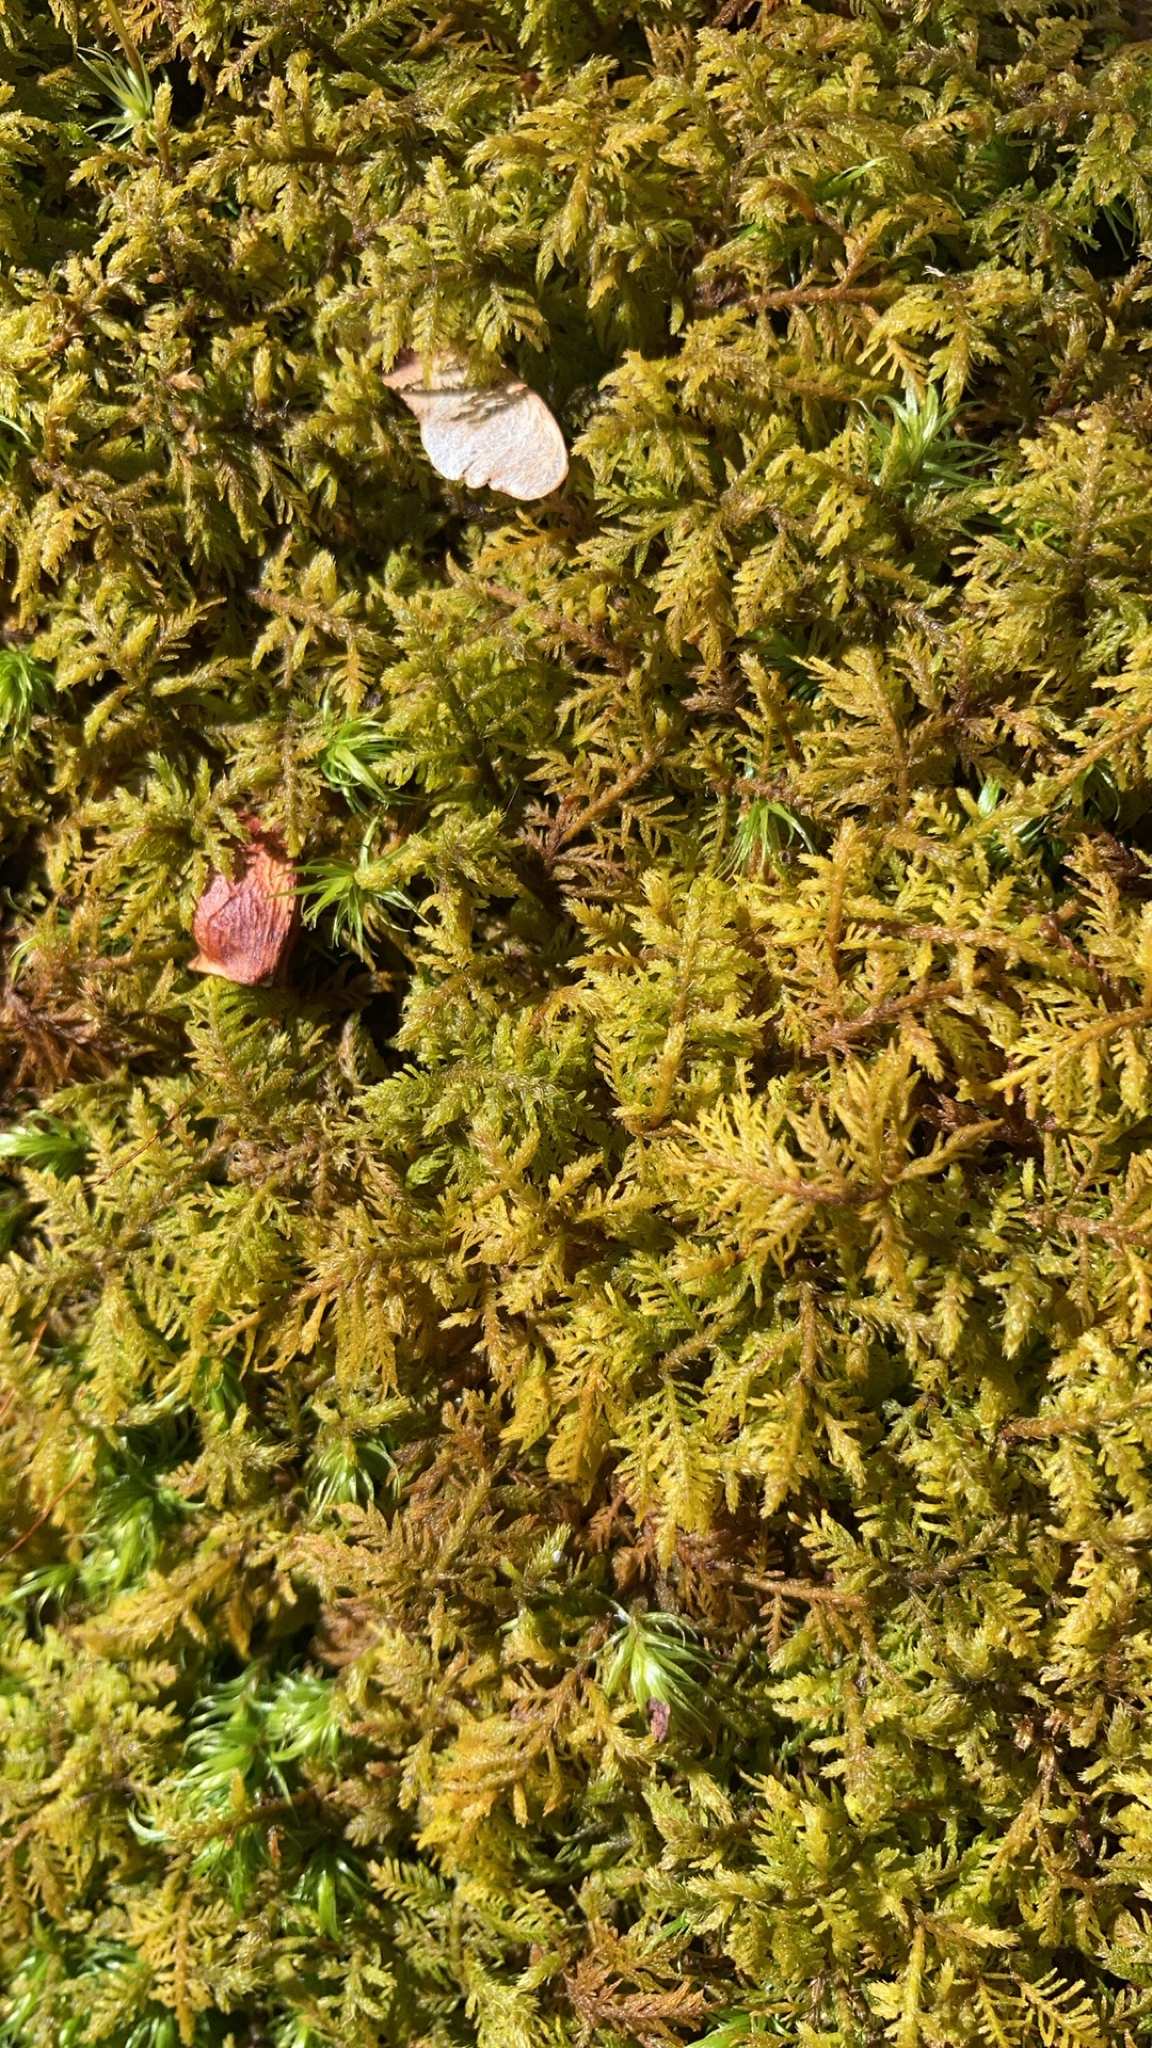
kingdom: Plantae
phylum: Bryophyta
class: Bryopsida
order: Hypnales
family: Thuidiaceae
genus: Thuidium
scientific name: Thuidium delicatulum
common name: Delicate fern moss
